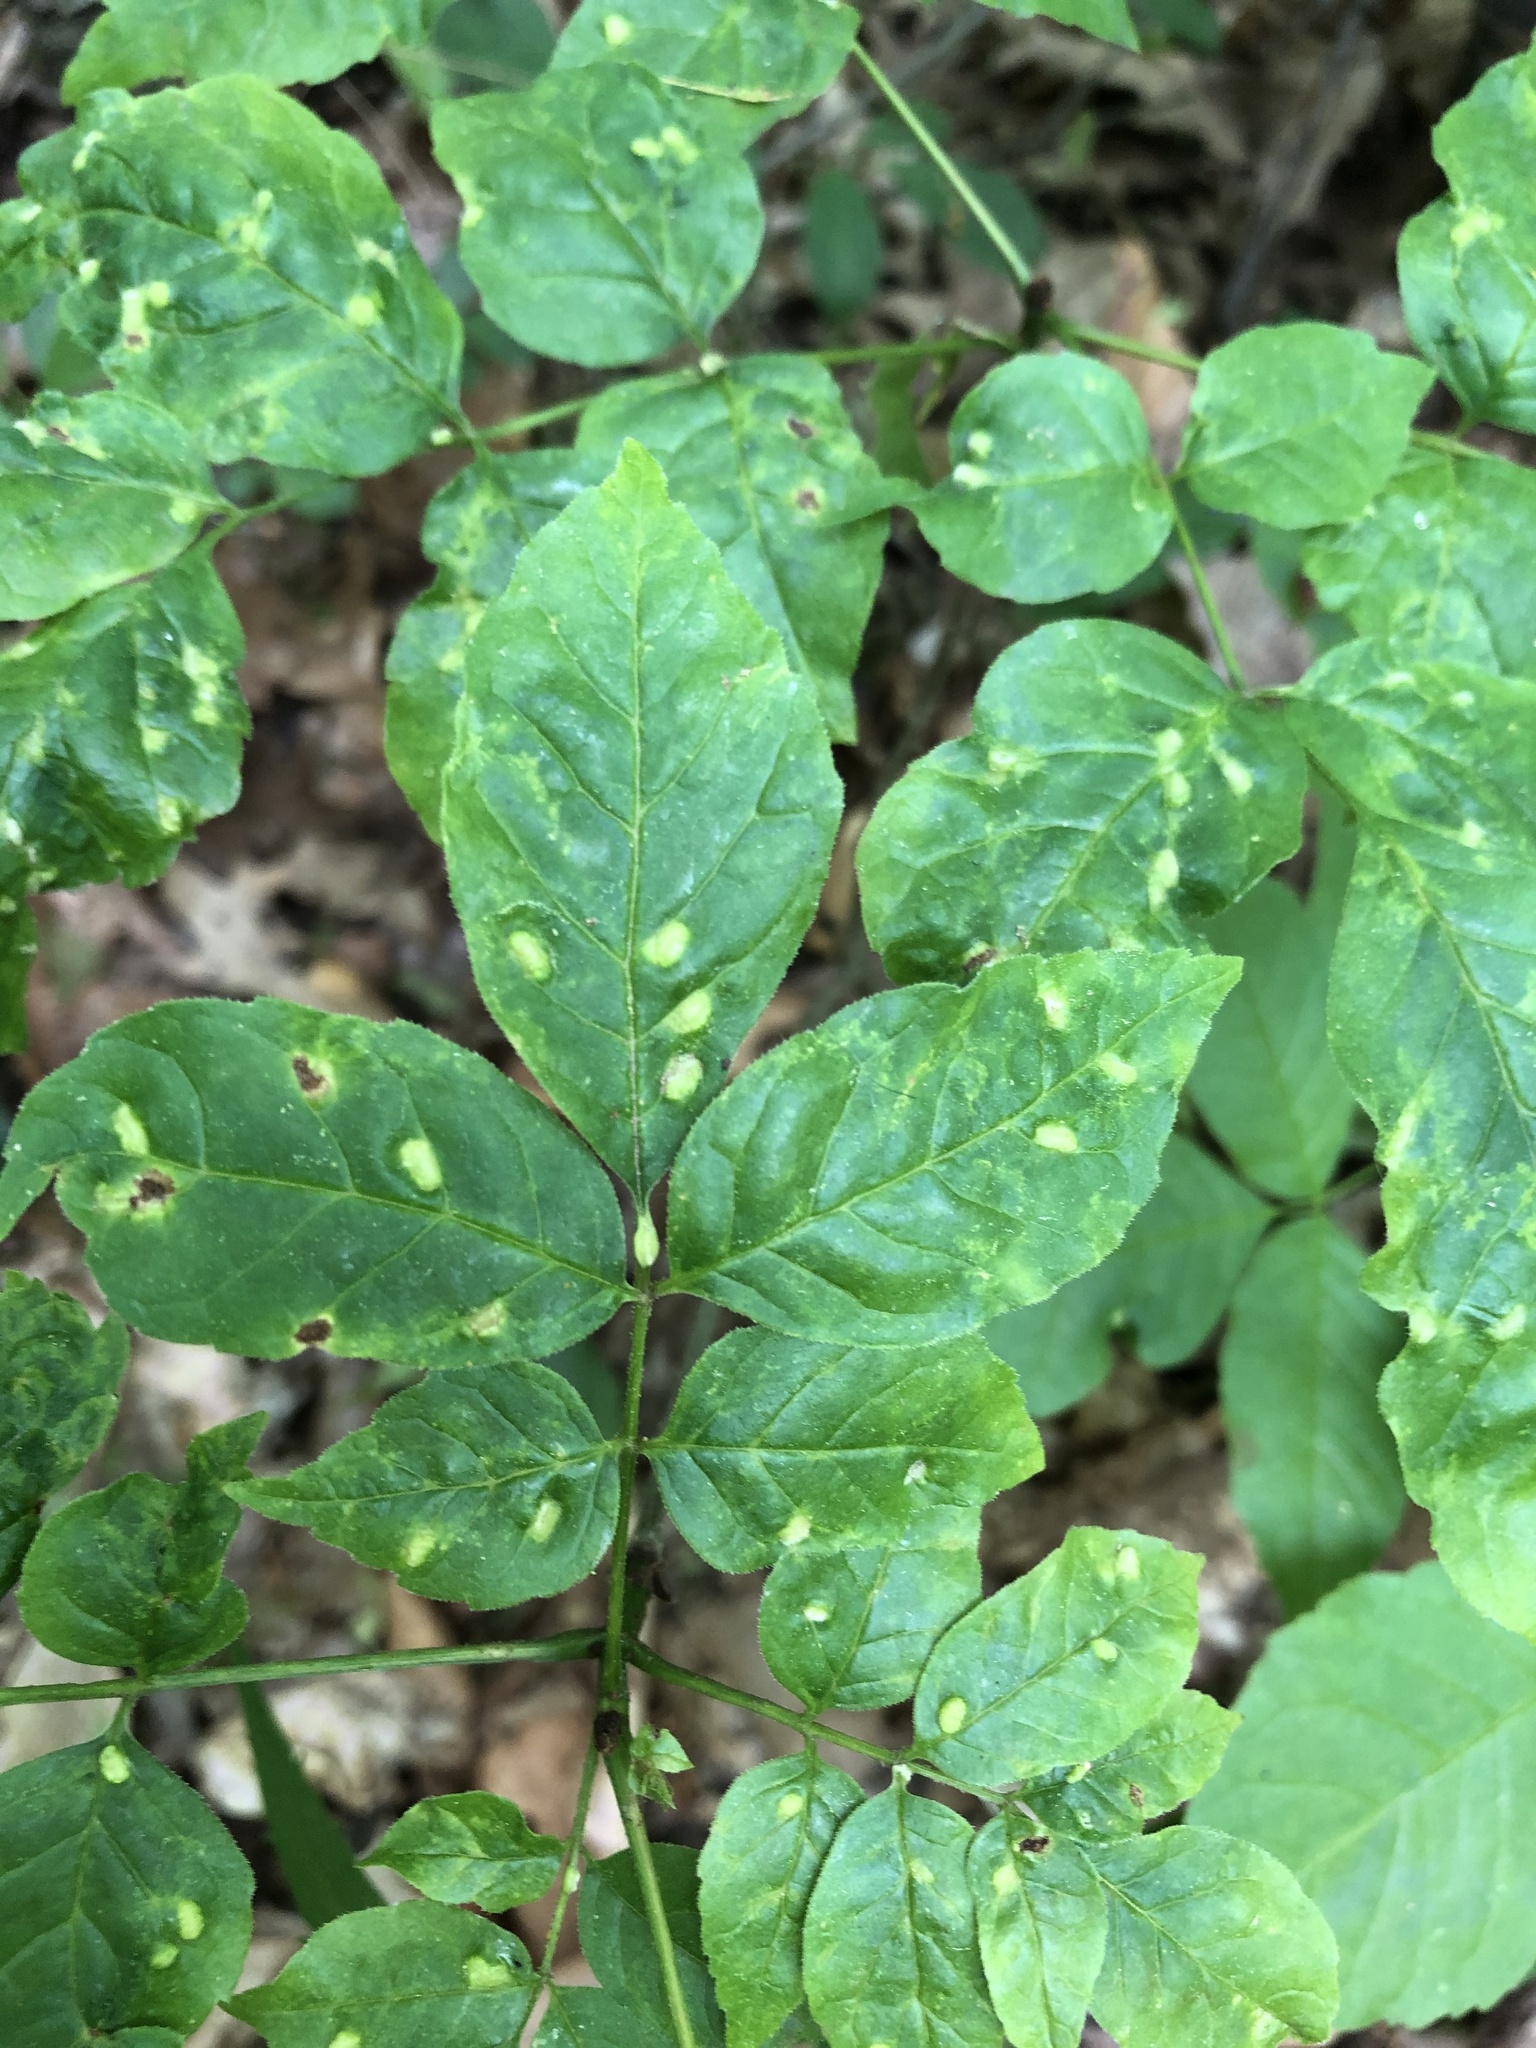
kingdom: Animalia
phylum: Arthropoda
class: Arachnida
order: Trombidiformes
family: Eriophyidae
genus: Aceria
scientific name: Aceria fraxinicola
